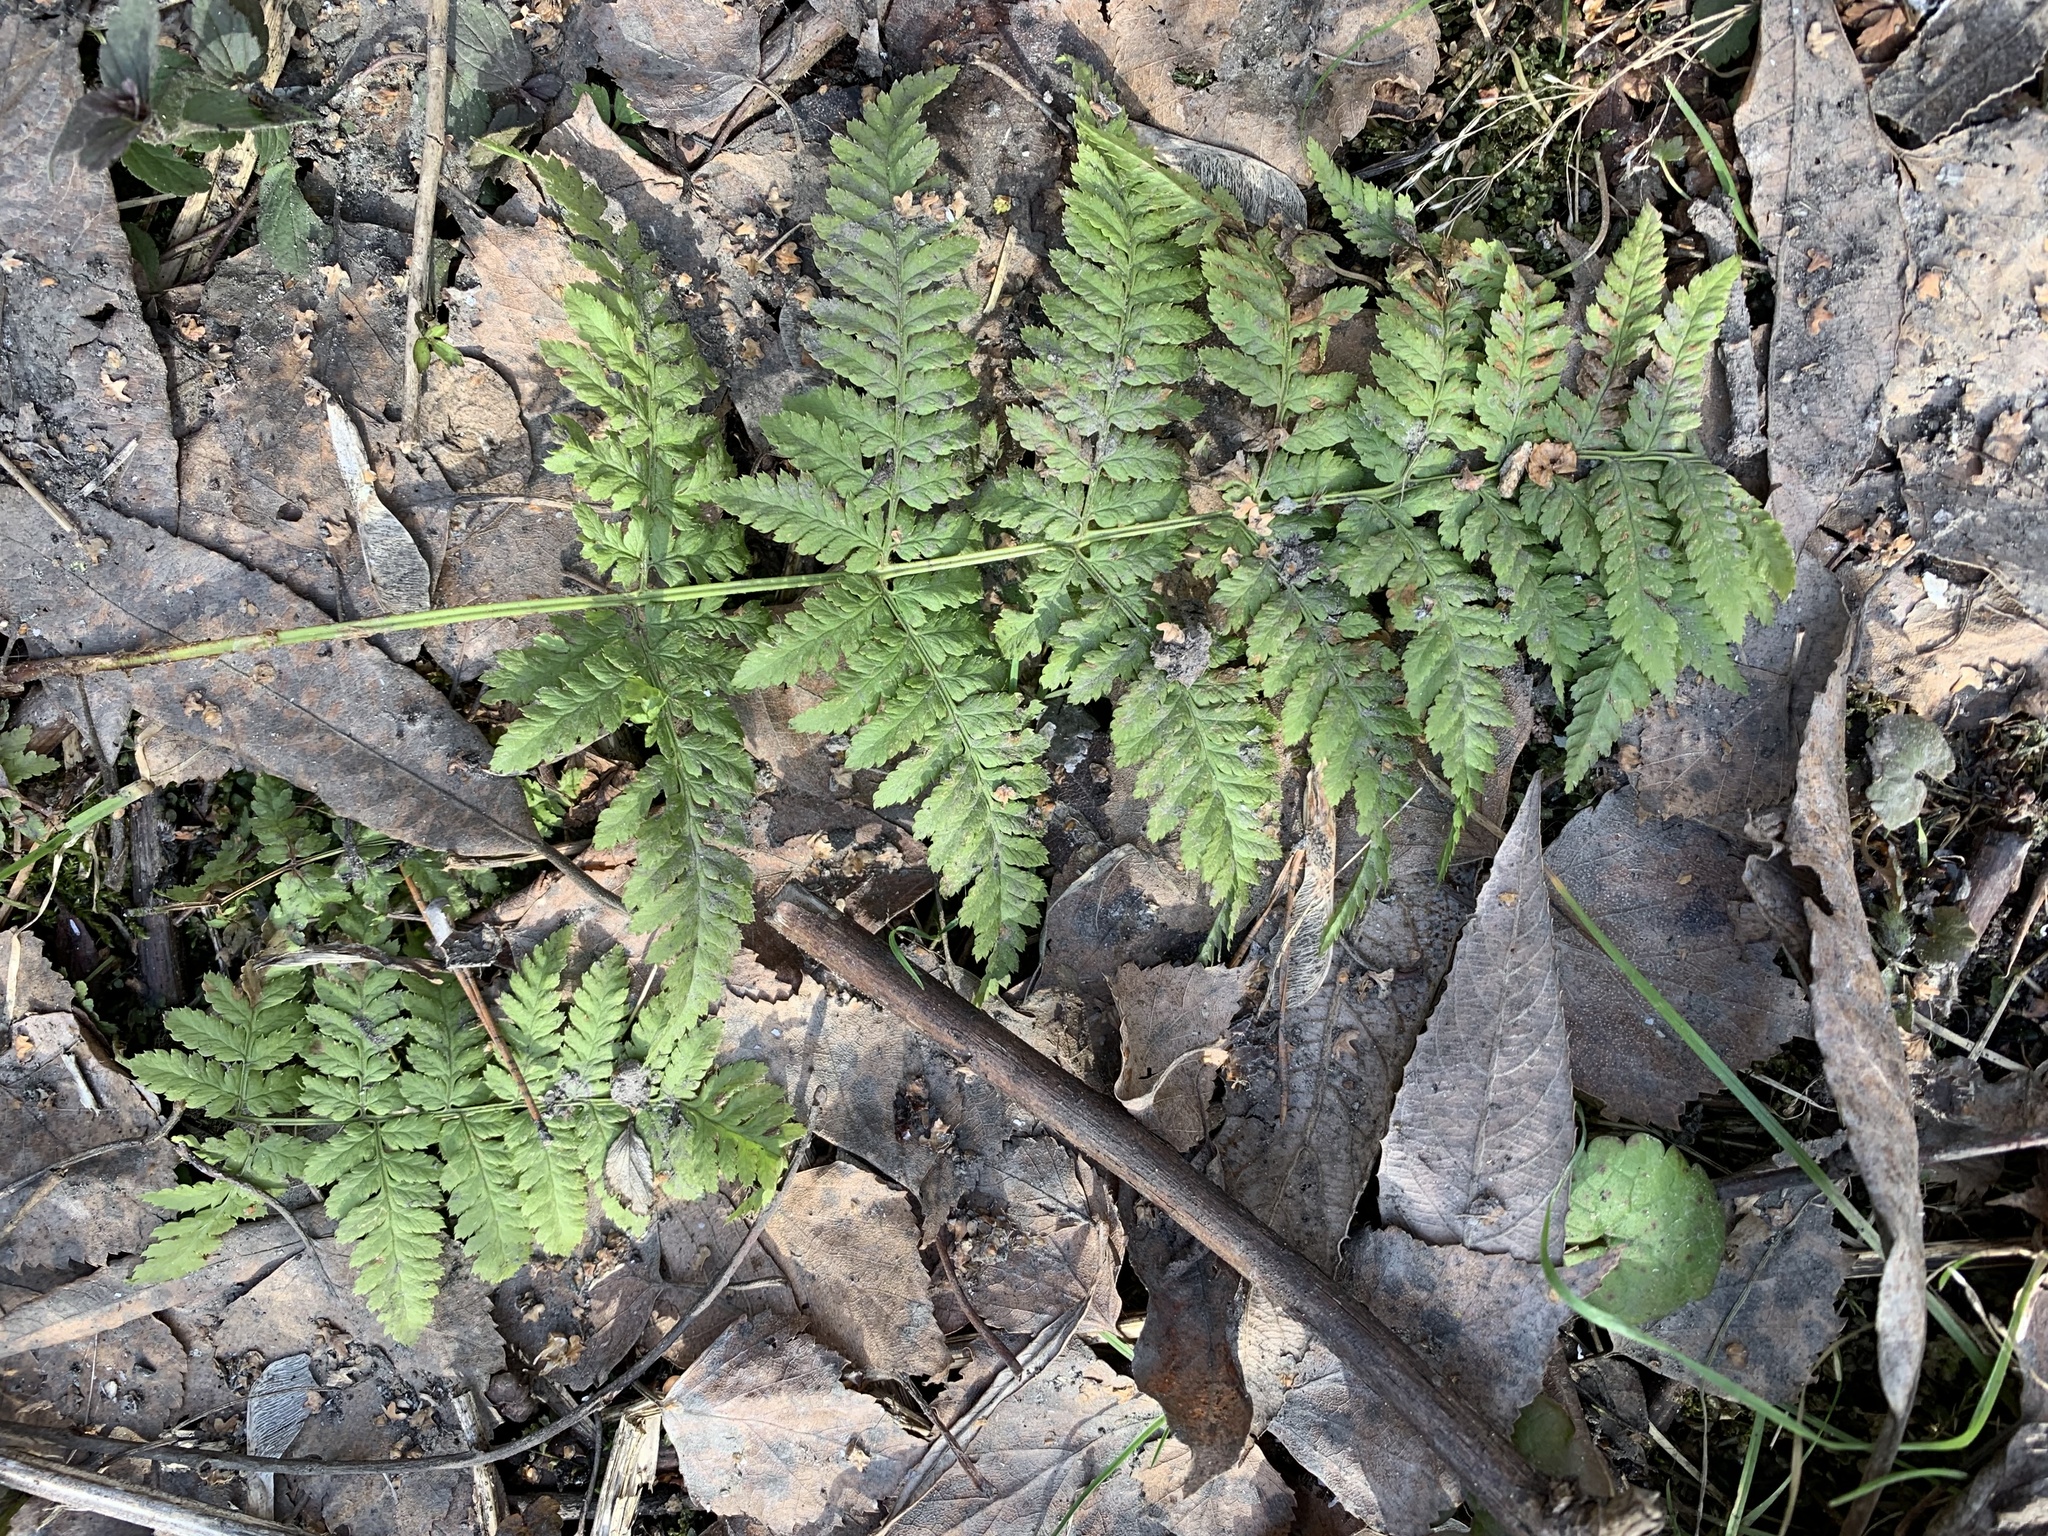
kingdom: Plantae
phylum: Tracheophyta
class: Polypodiopsida
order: Polypodiales
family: Dryopteridaceae
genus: Dryopteris
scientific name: Dryopteris carthusiana
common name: Narrow buckler-fern
